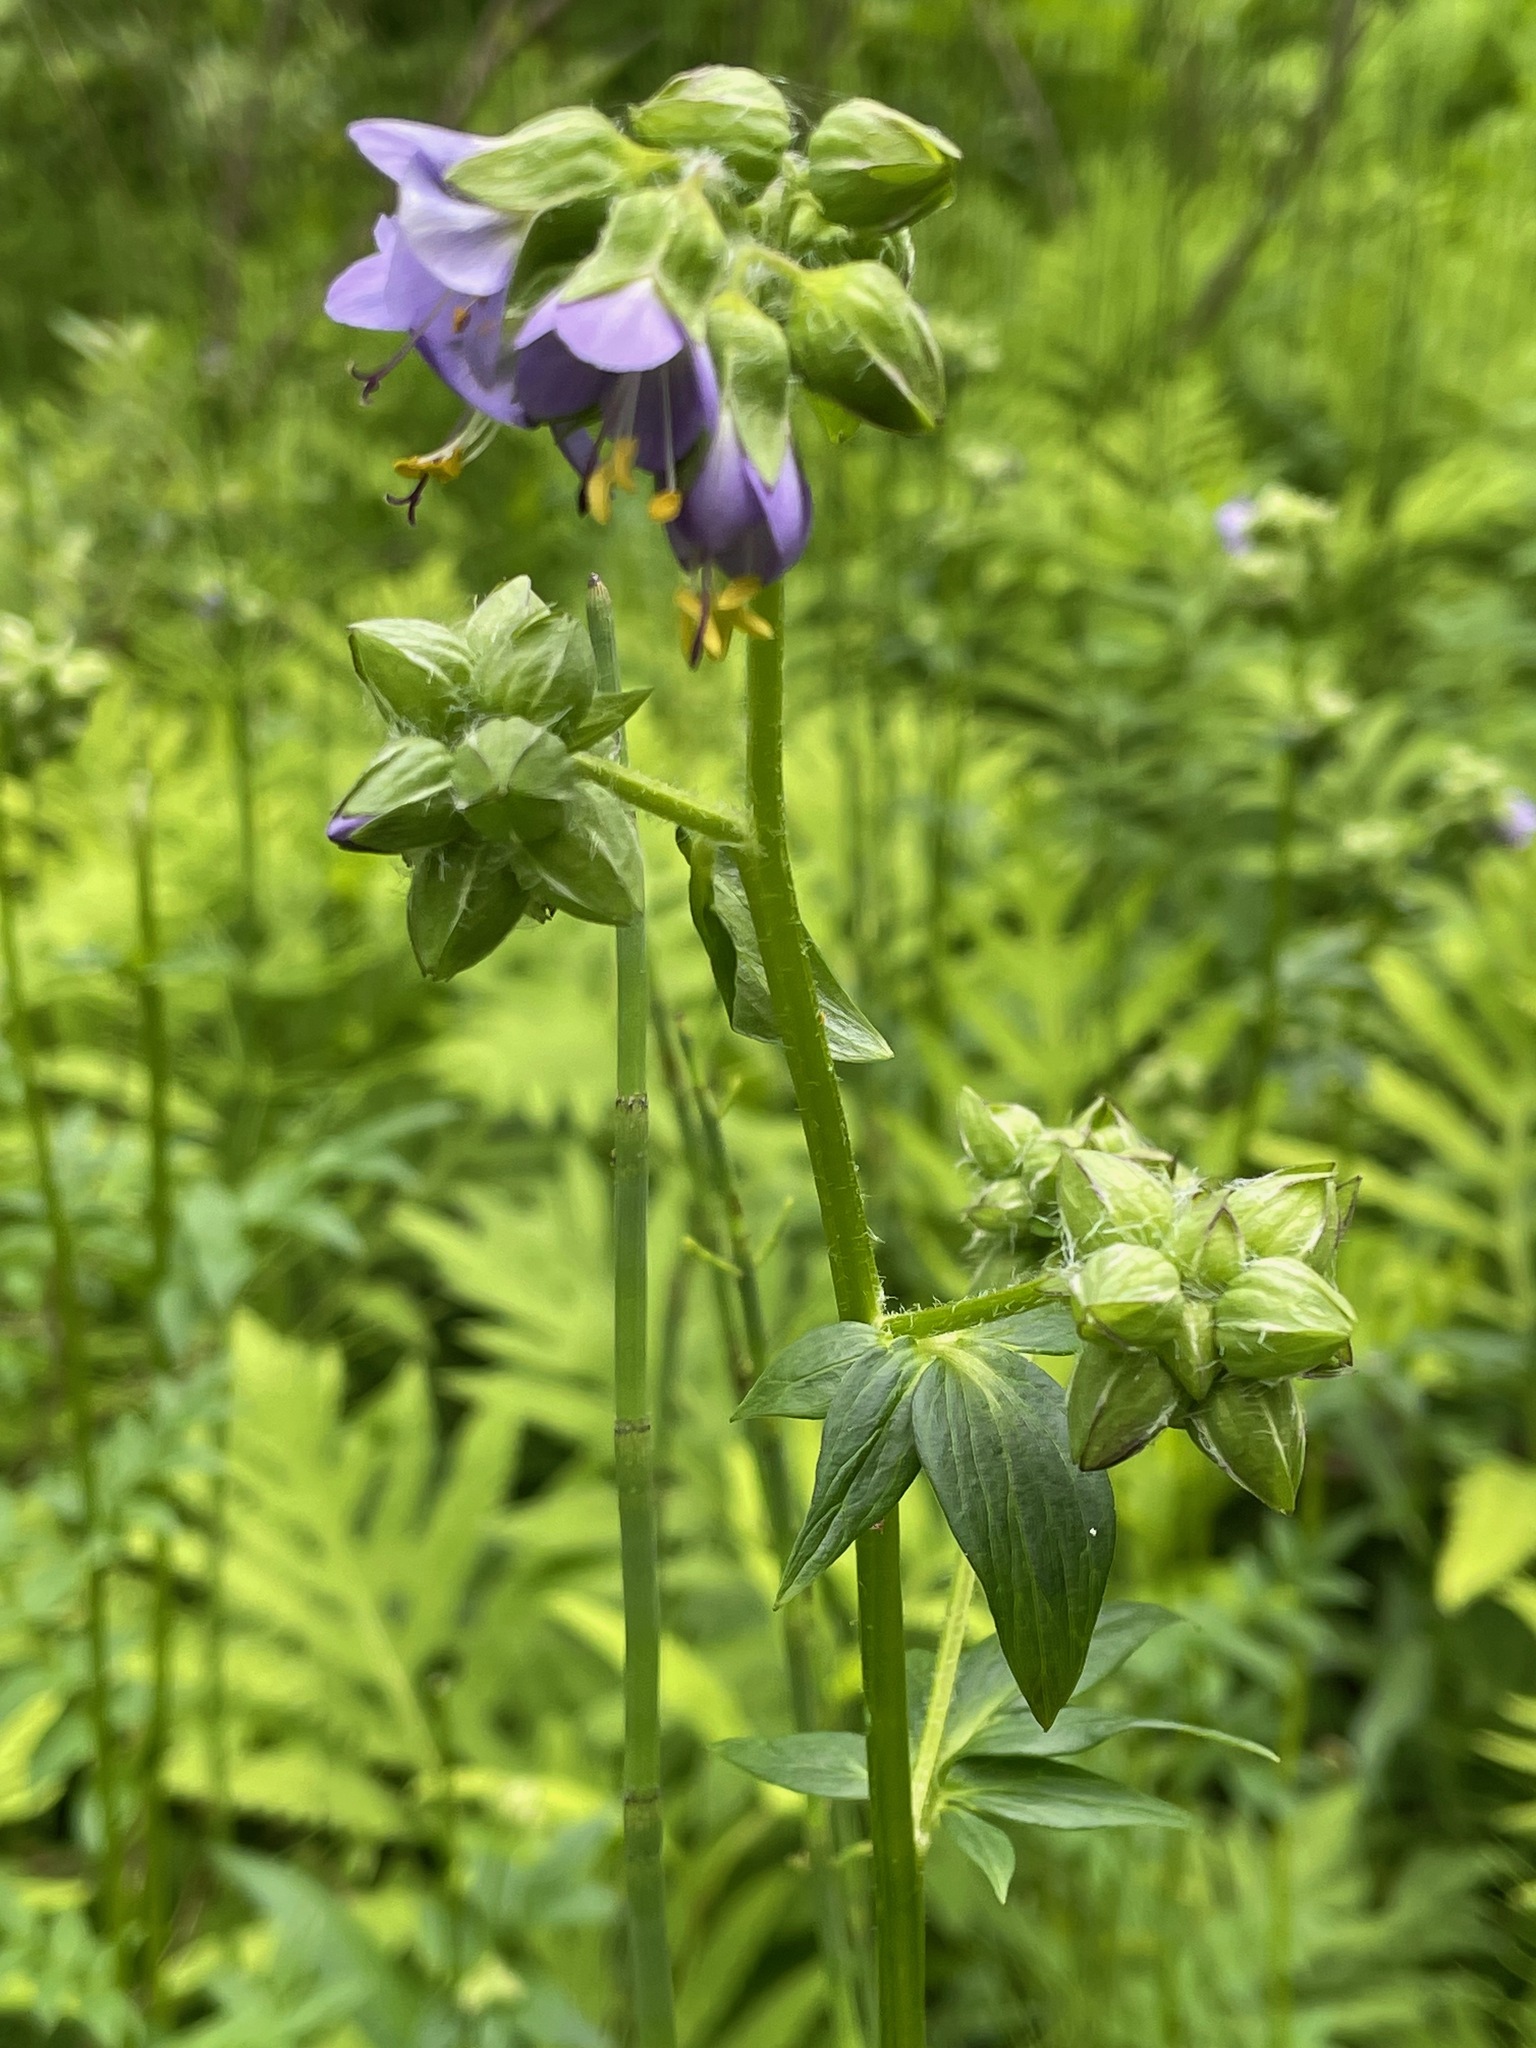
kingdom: Plantae
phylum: Tracheophyta
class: Magnoliopsida
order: Ericales
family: Polemoniaceae
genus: Polemonium
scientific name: Polemonium vanbruntiae
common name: Bog jacob's-ladder
